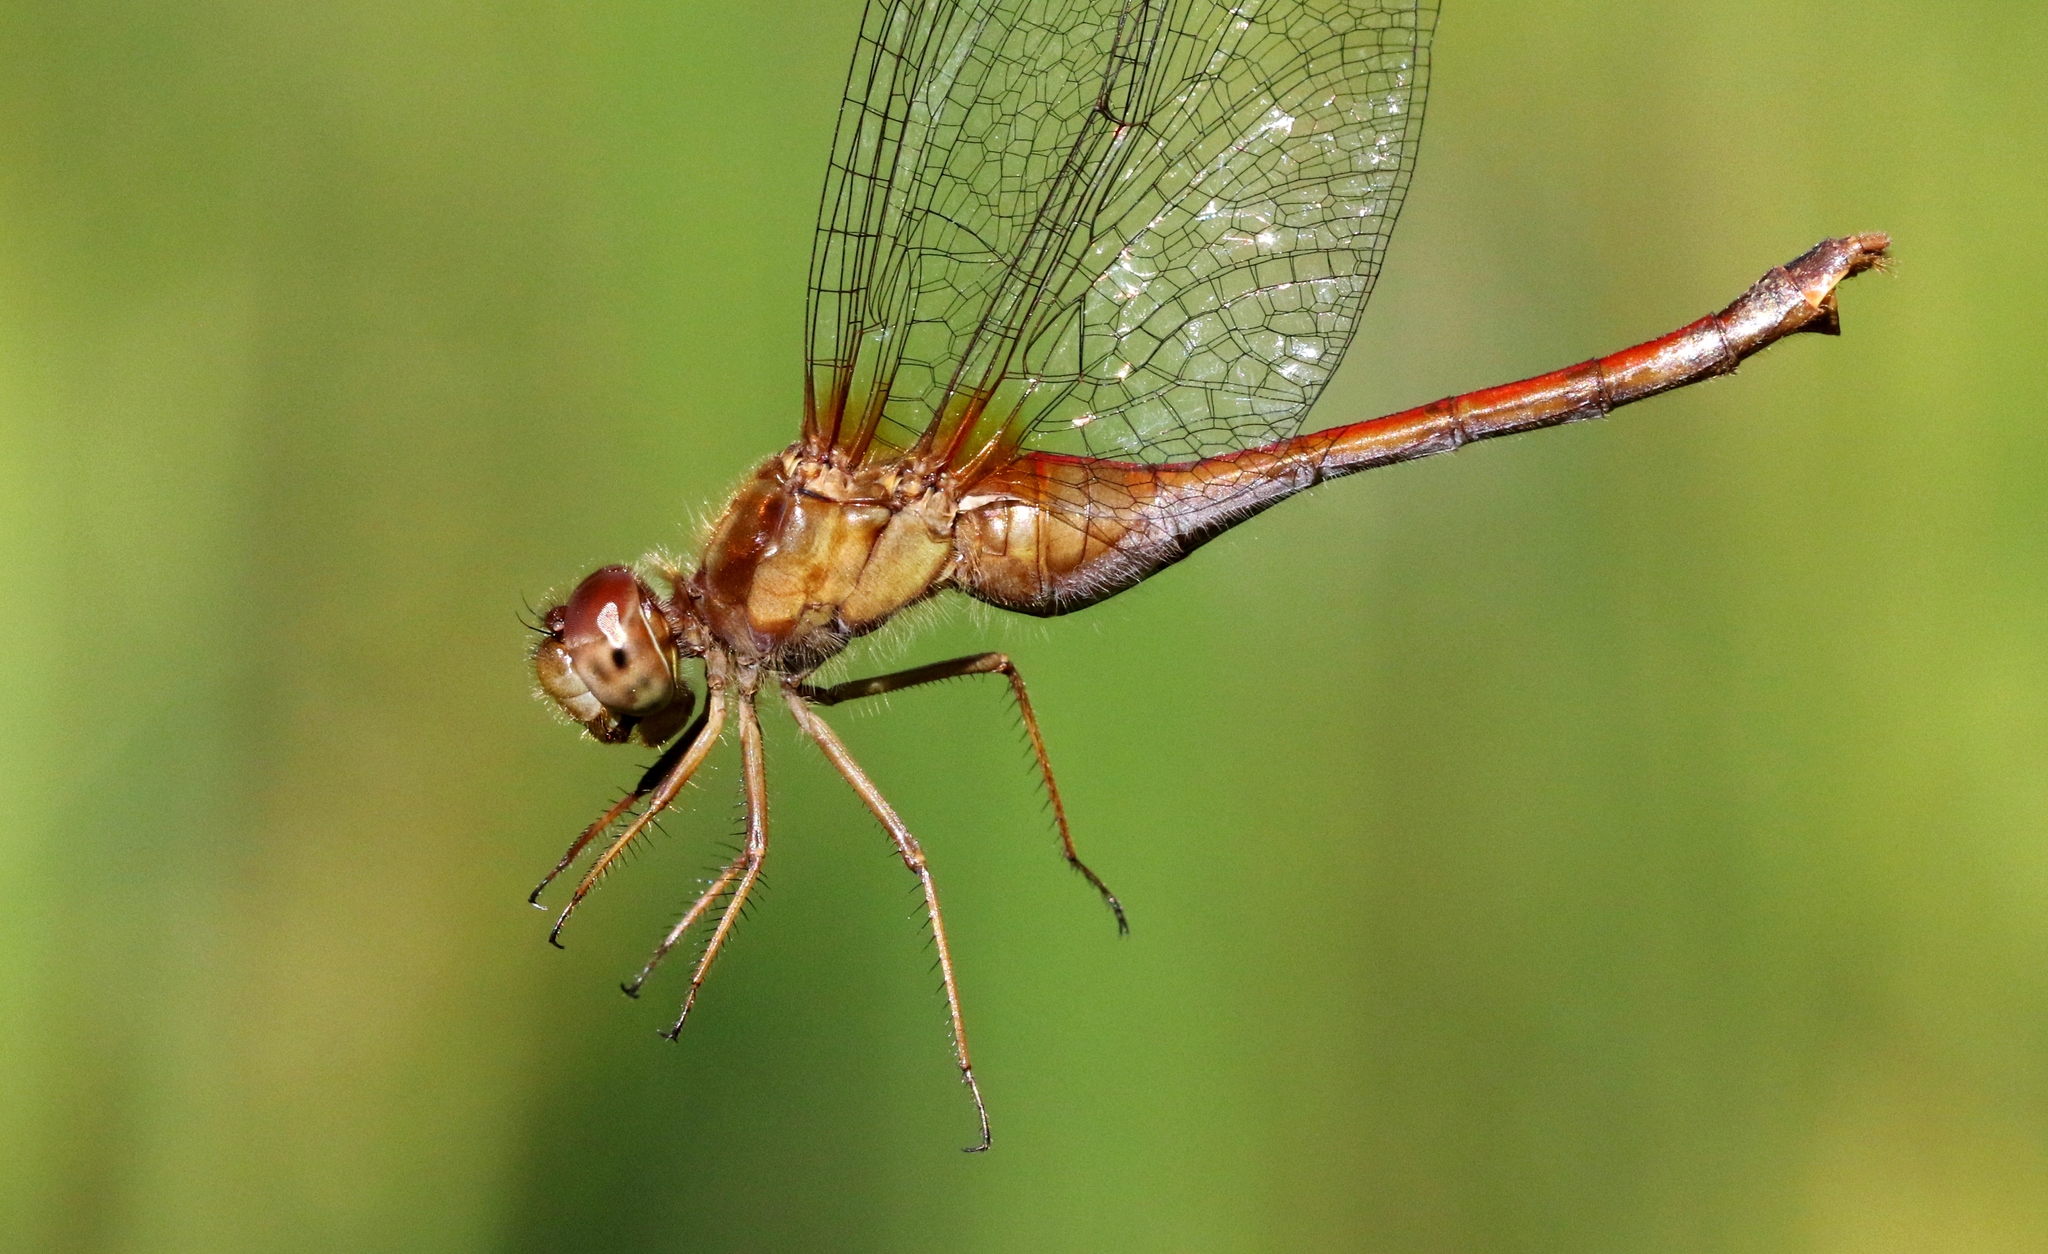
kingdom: Animalia
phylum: Arthropoda
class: Insecta
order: Odonata
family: Libellulidae
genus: Sympetrum
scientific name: Sympetrum vicinum
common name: Autumn meadowhawk
